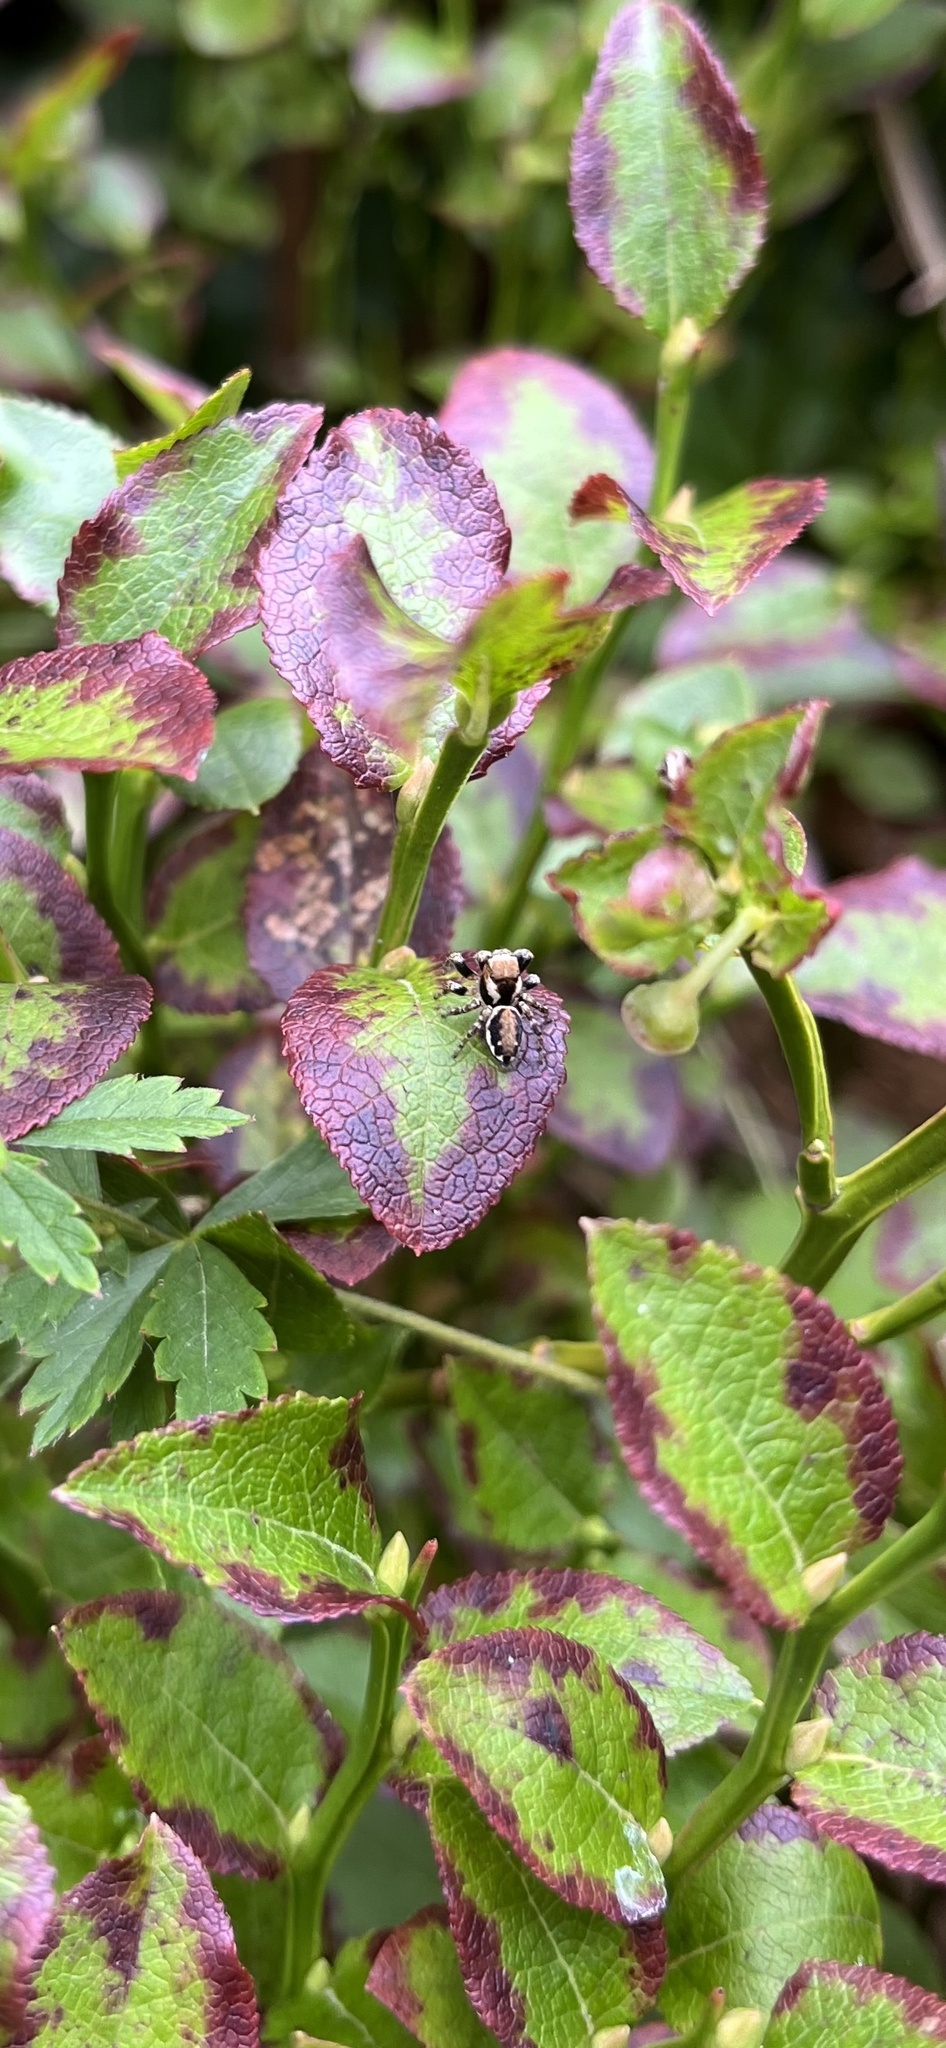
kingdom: Animalia
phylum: Arthropoda
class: Arachnida
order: Araneae
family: Salticidae
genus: Evarcha
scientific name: Evarcha falcata
